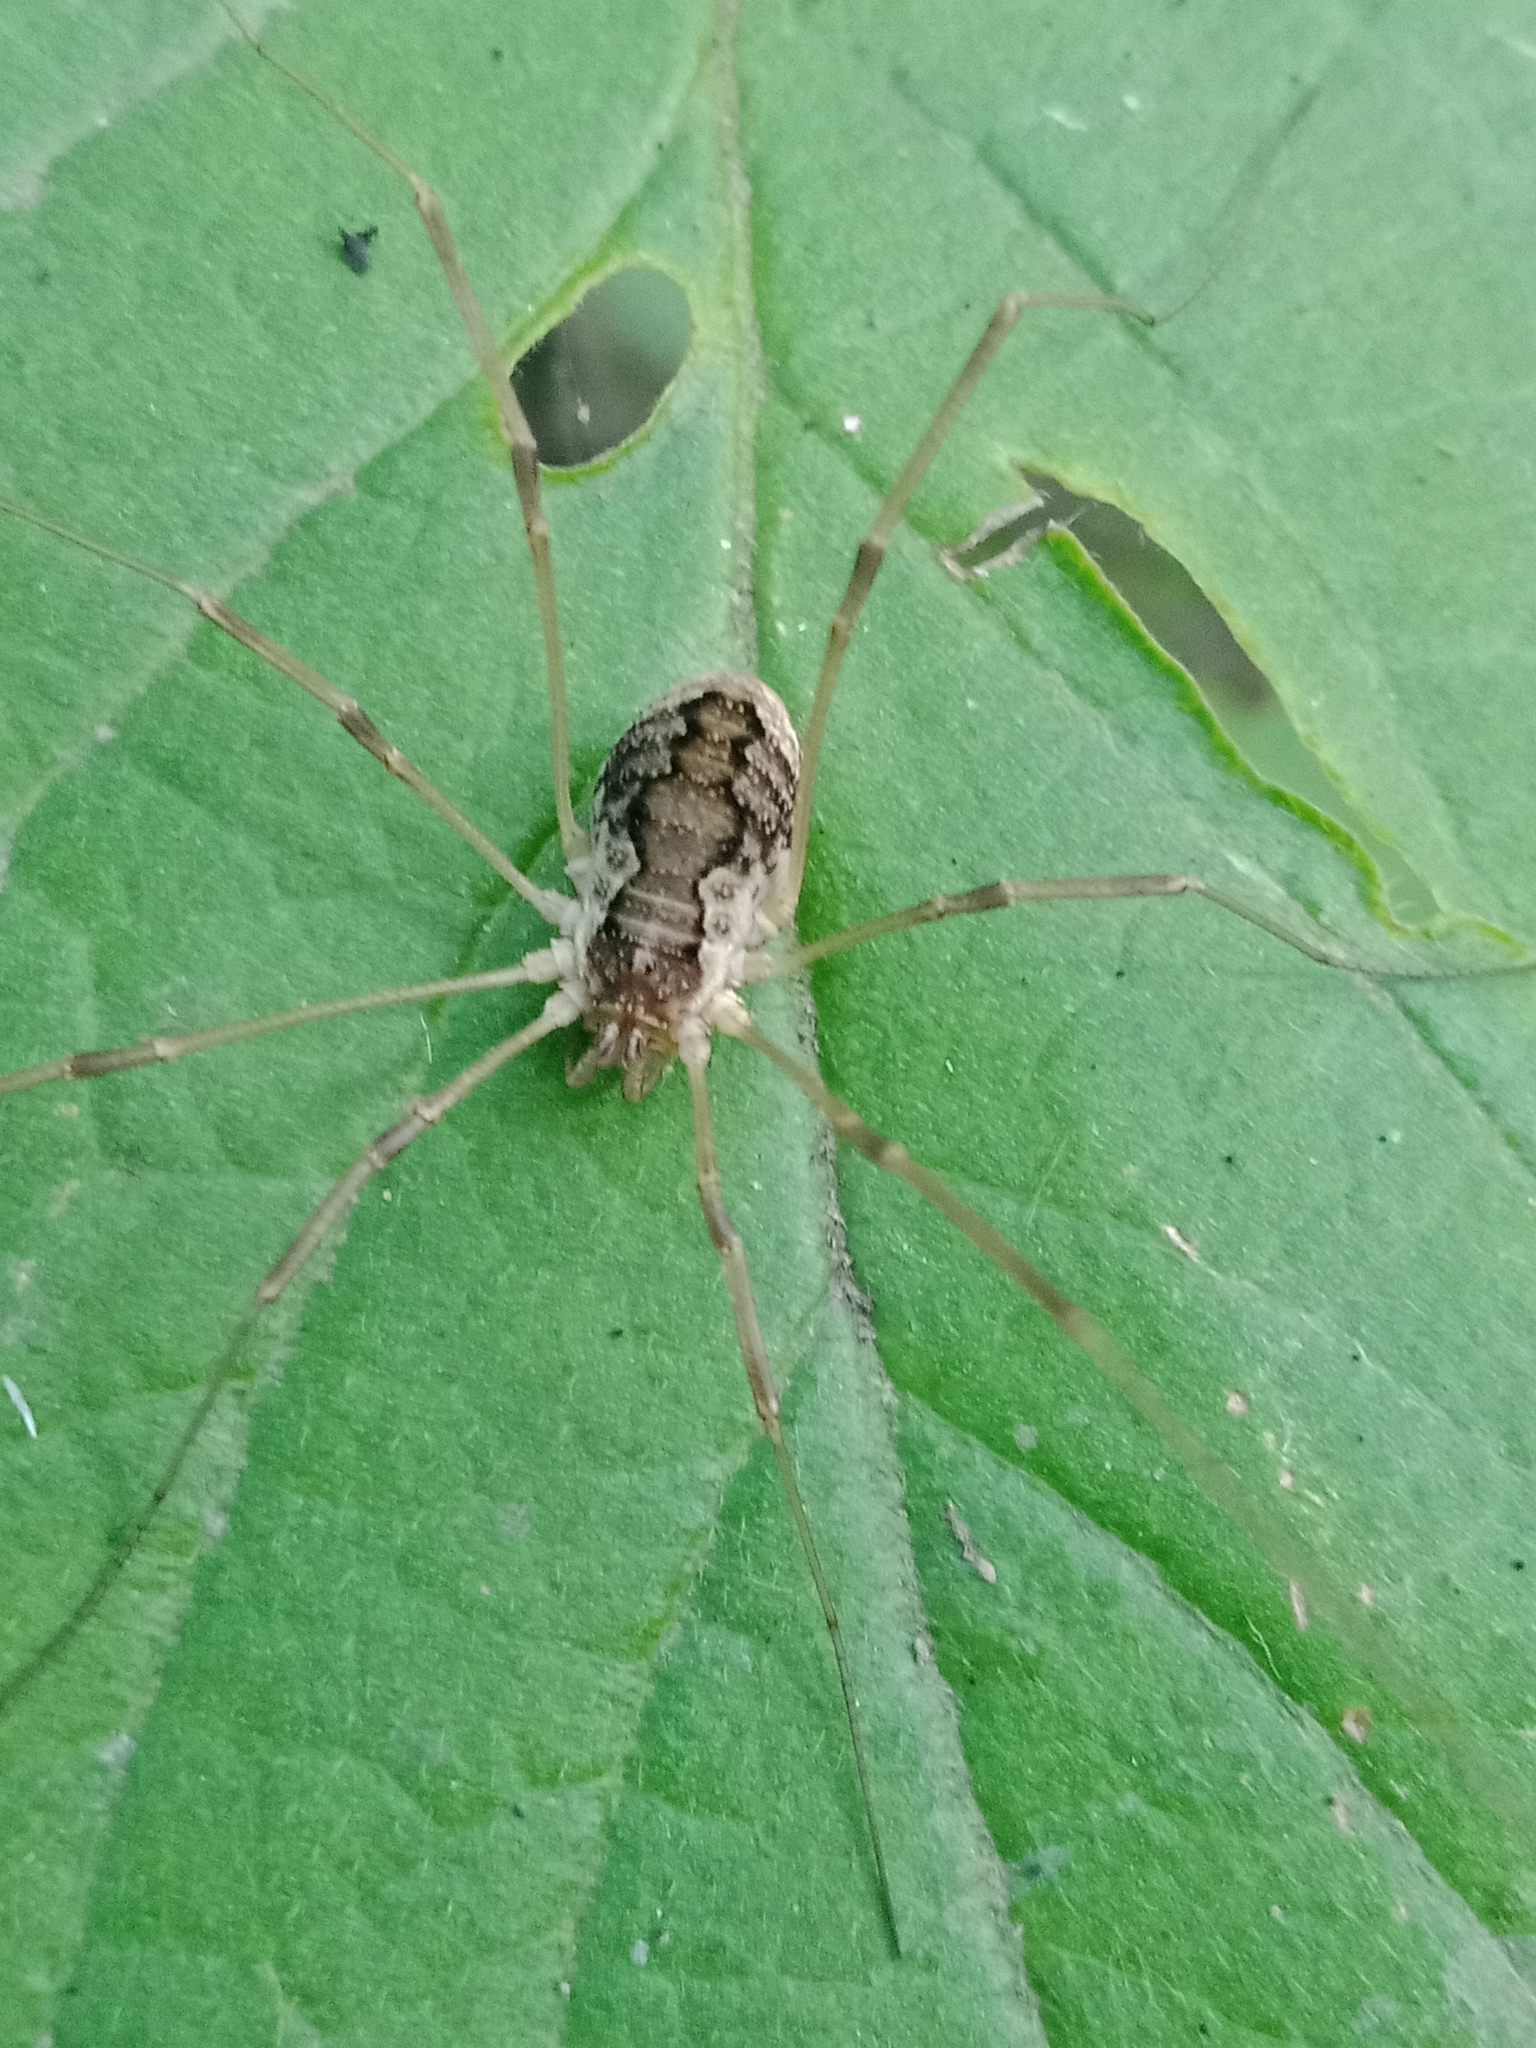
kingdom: Animalia
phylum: Arthropoda
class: Arachnida
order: Opiliones
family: Phalangiidae
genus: Mitopus
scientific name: Mitopus morio
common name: Saddleback harvestman
